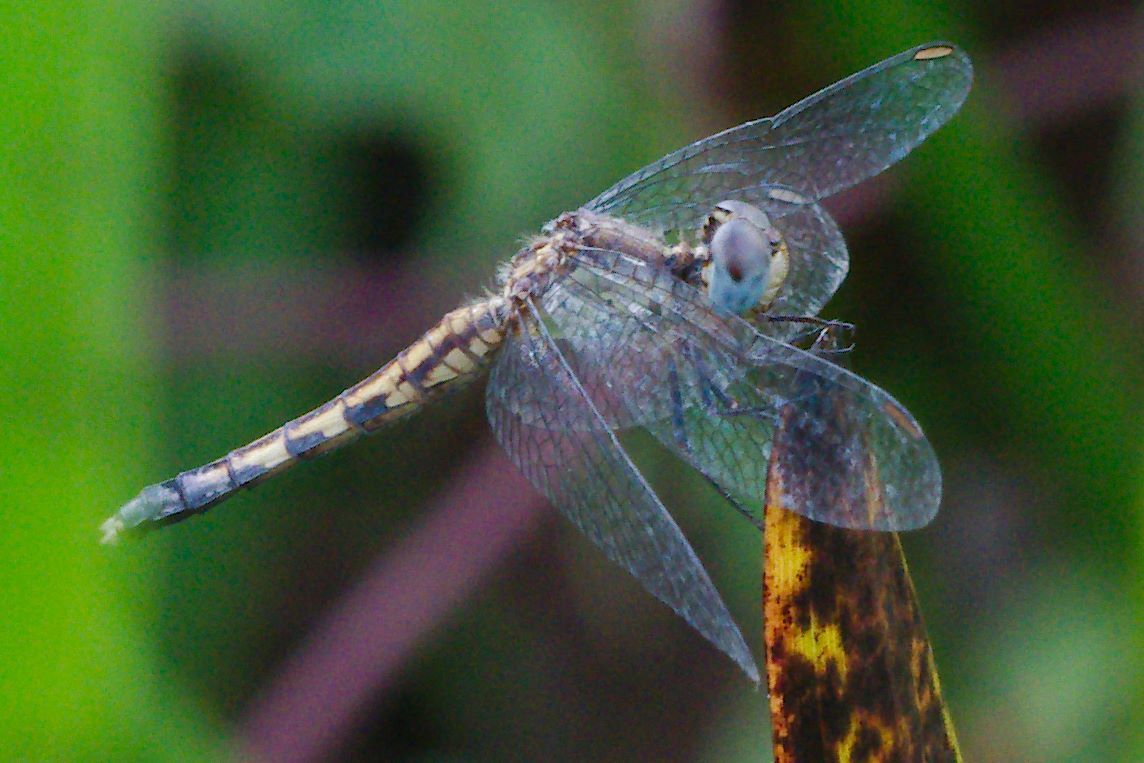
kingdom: Animalia
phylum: Arthropoda
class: Insecta
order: Odonata
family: Libellulidae
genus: Erythrodiplax
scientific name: Erythrodiplax minuscula
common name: Little blue dragonlet
